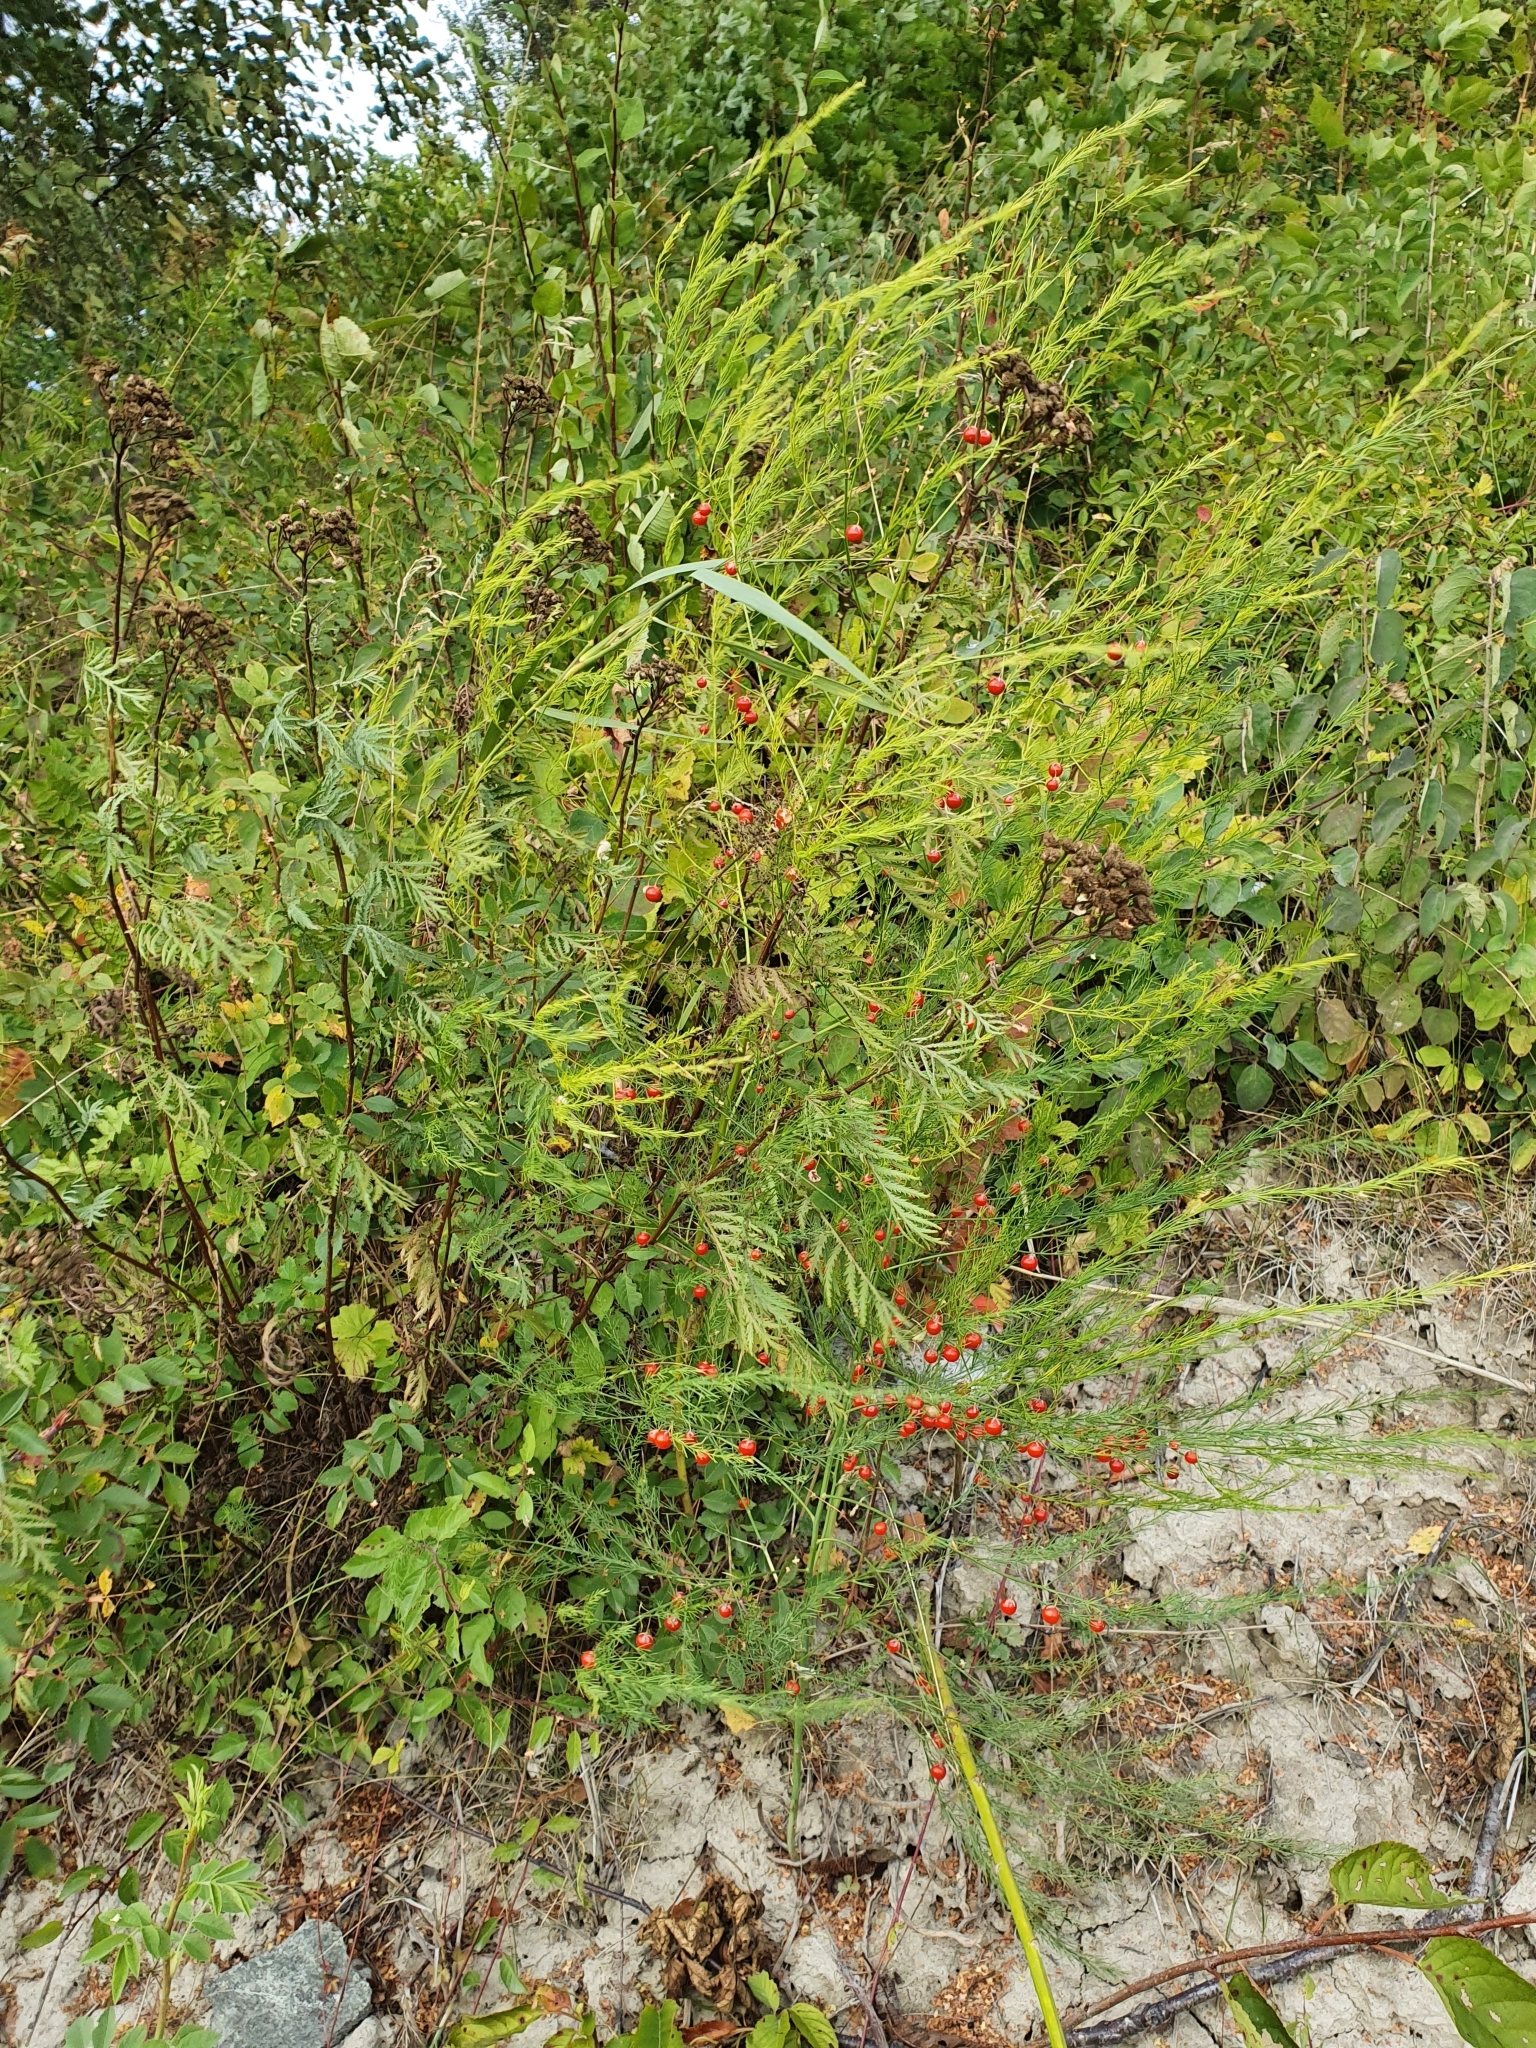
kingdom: Plantae
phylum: Tracheophyta
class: Liliopsida
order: Asparagales
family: Asparagaceae
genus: Asparagus
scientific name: Asparagus officinalis
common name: Garden asparagus
